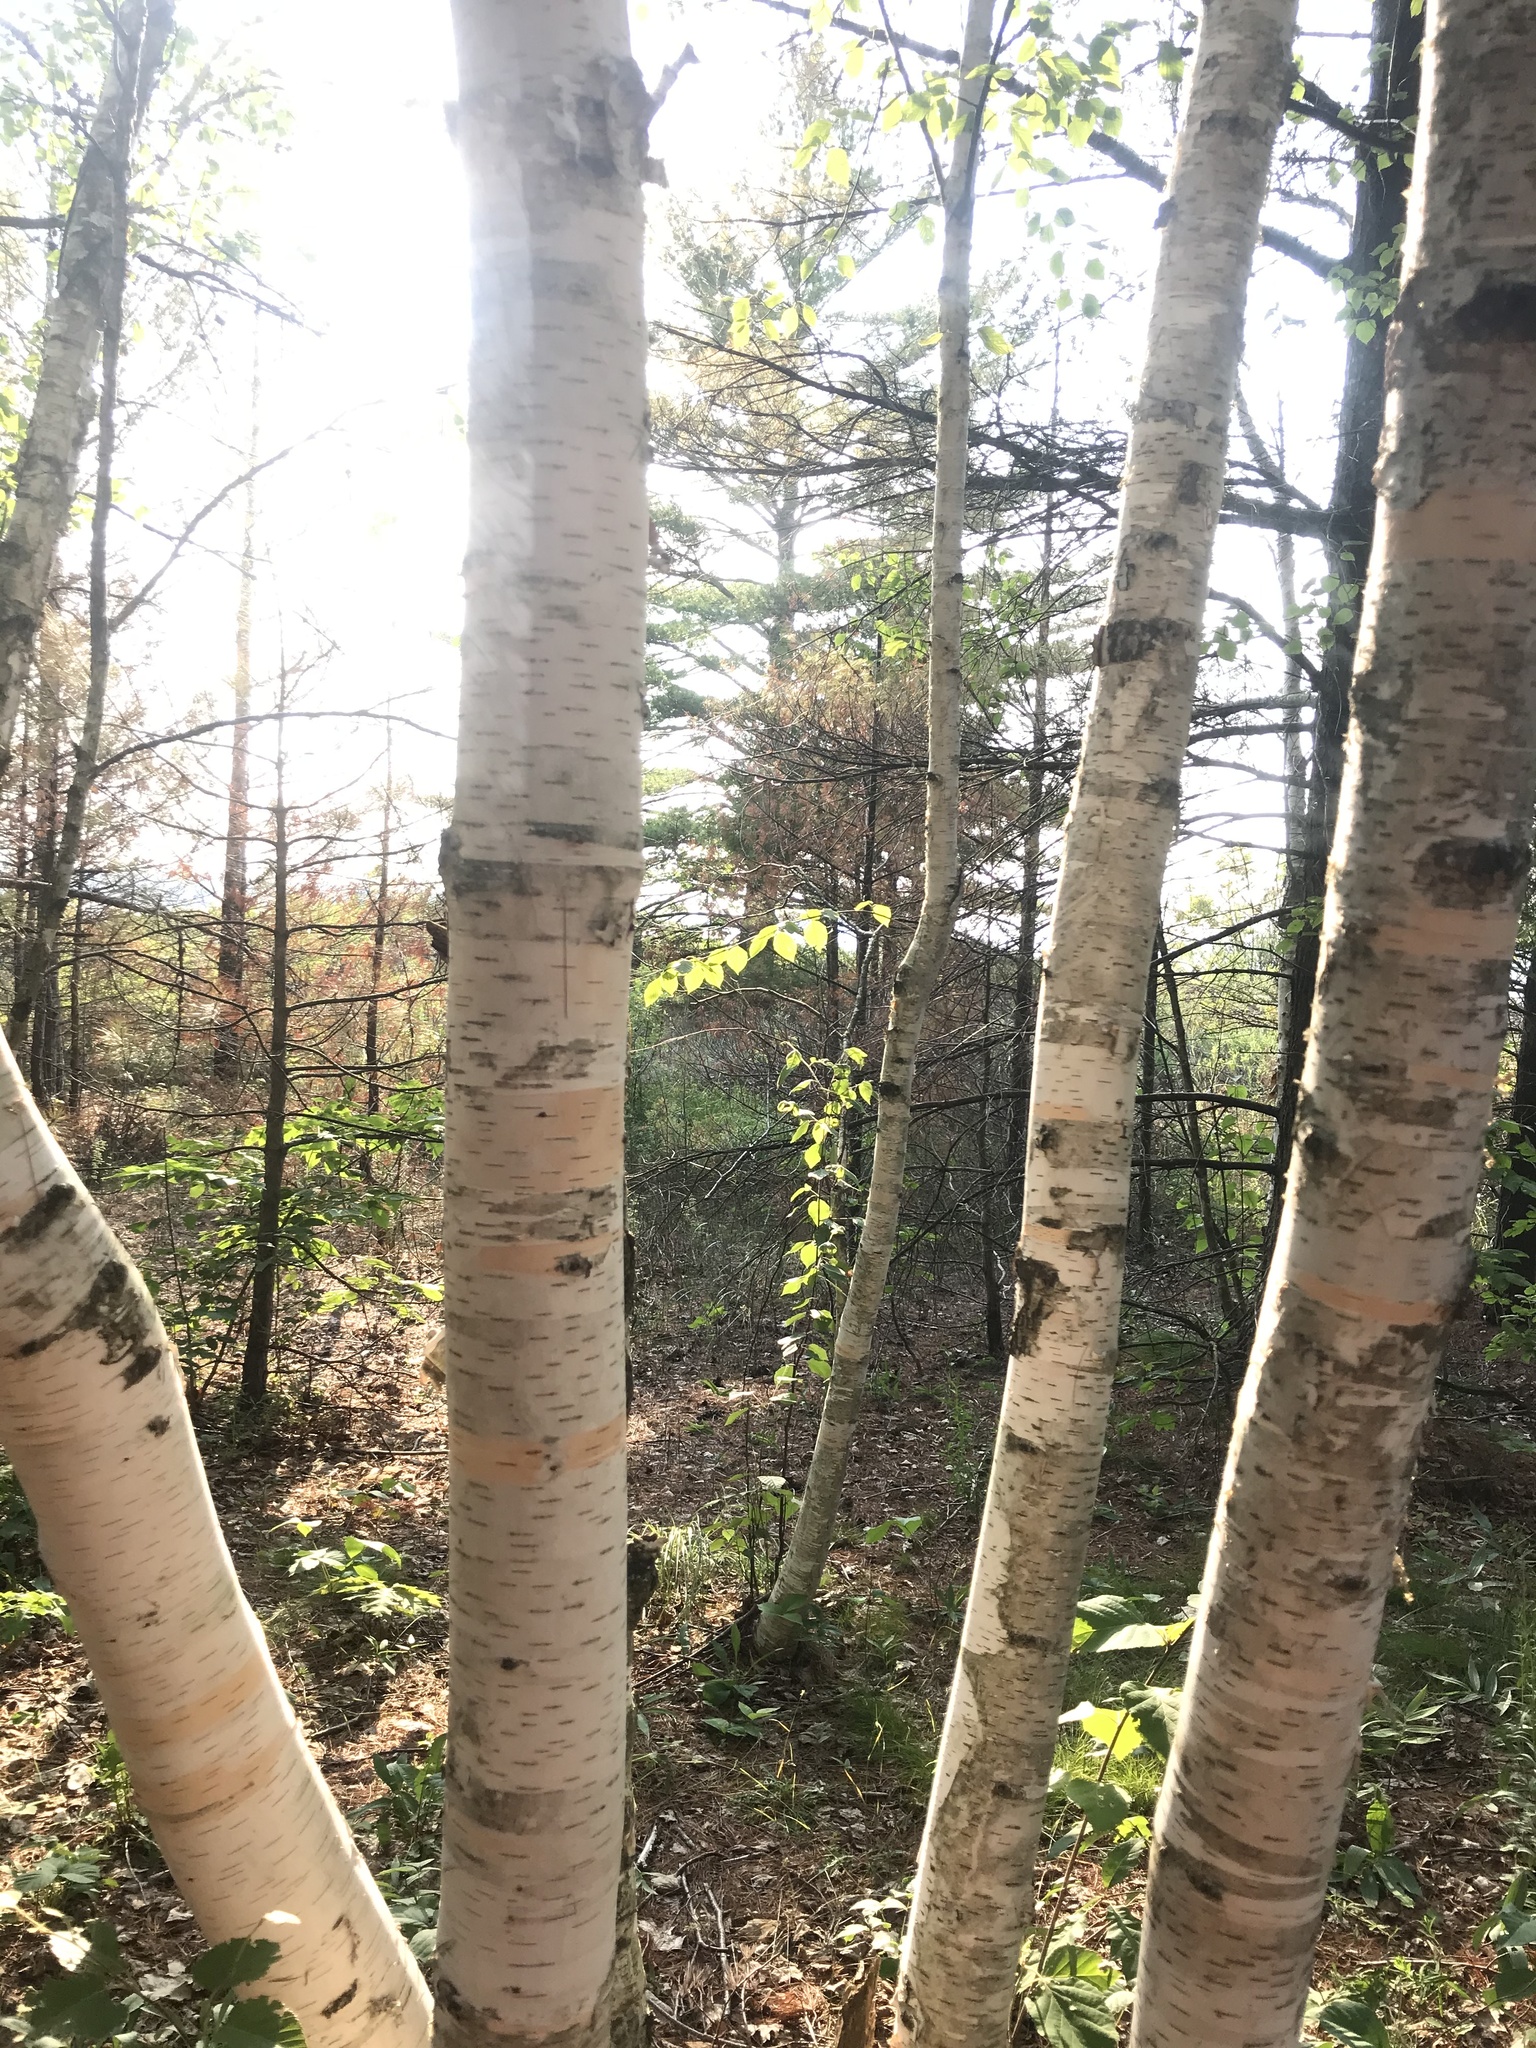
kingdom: Plantae
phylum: Tracheophyta
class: Magnoliopsida
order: Fagales
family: Betulaceae
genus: Betula
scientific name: Betula papyrifera
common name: Paper birch
